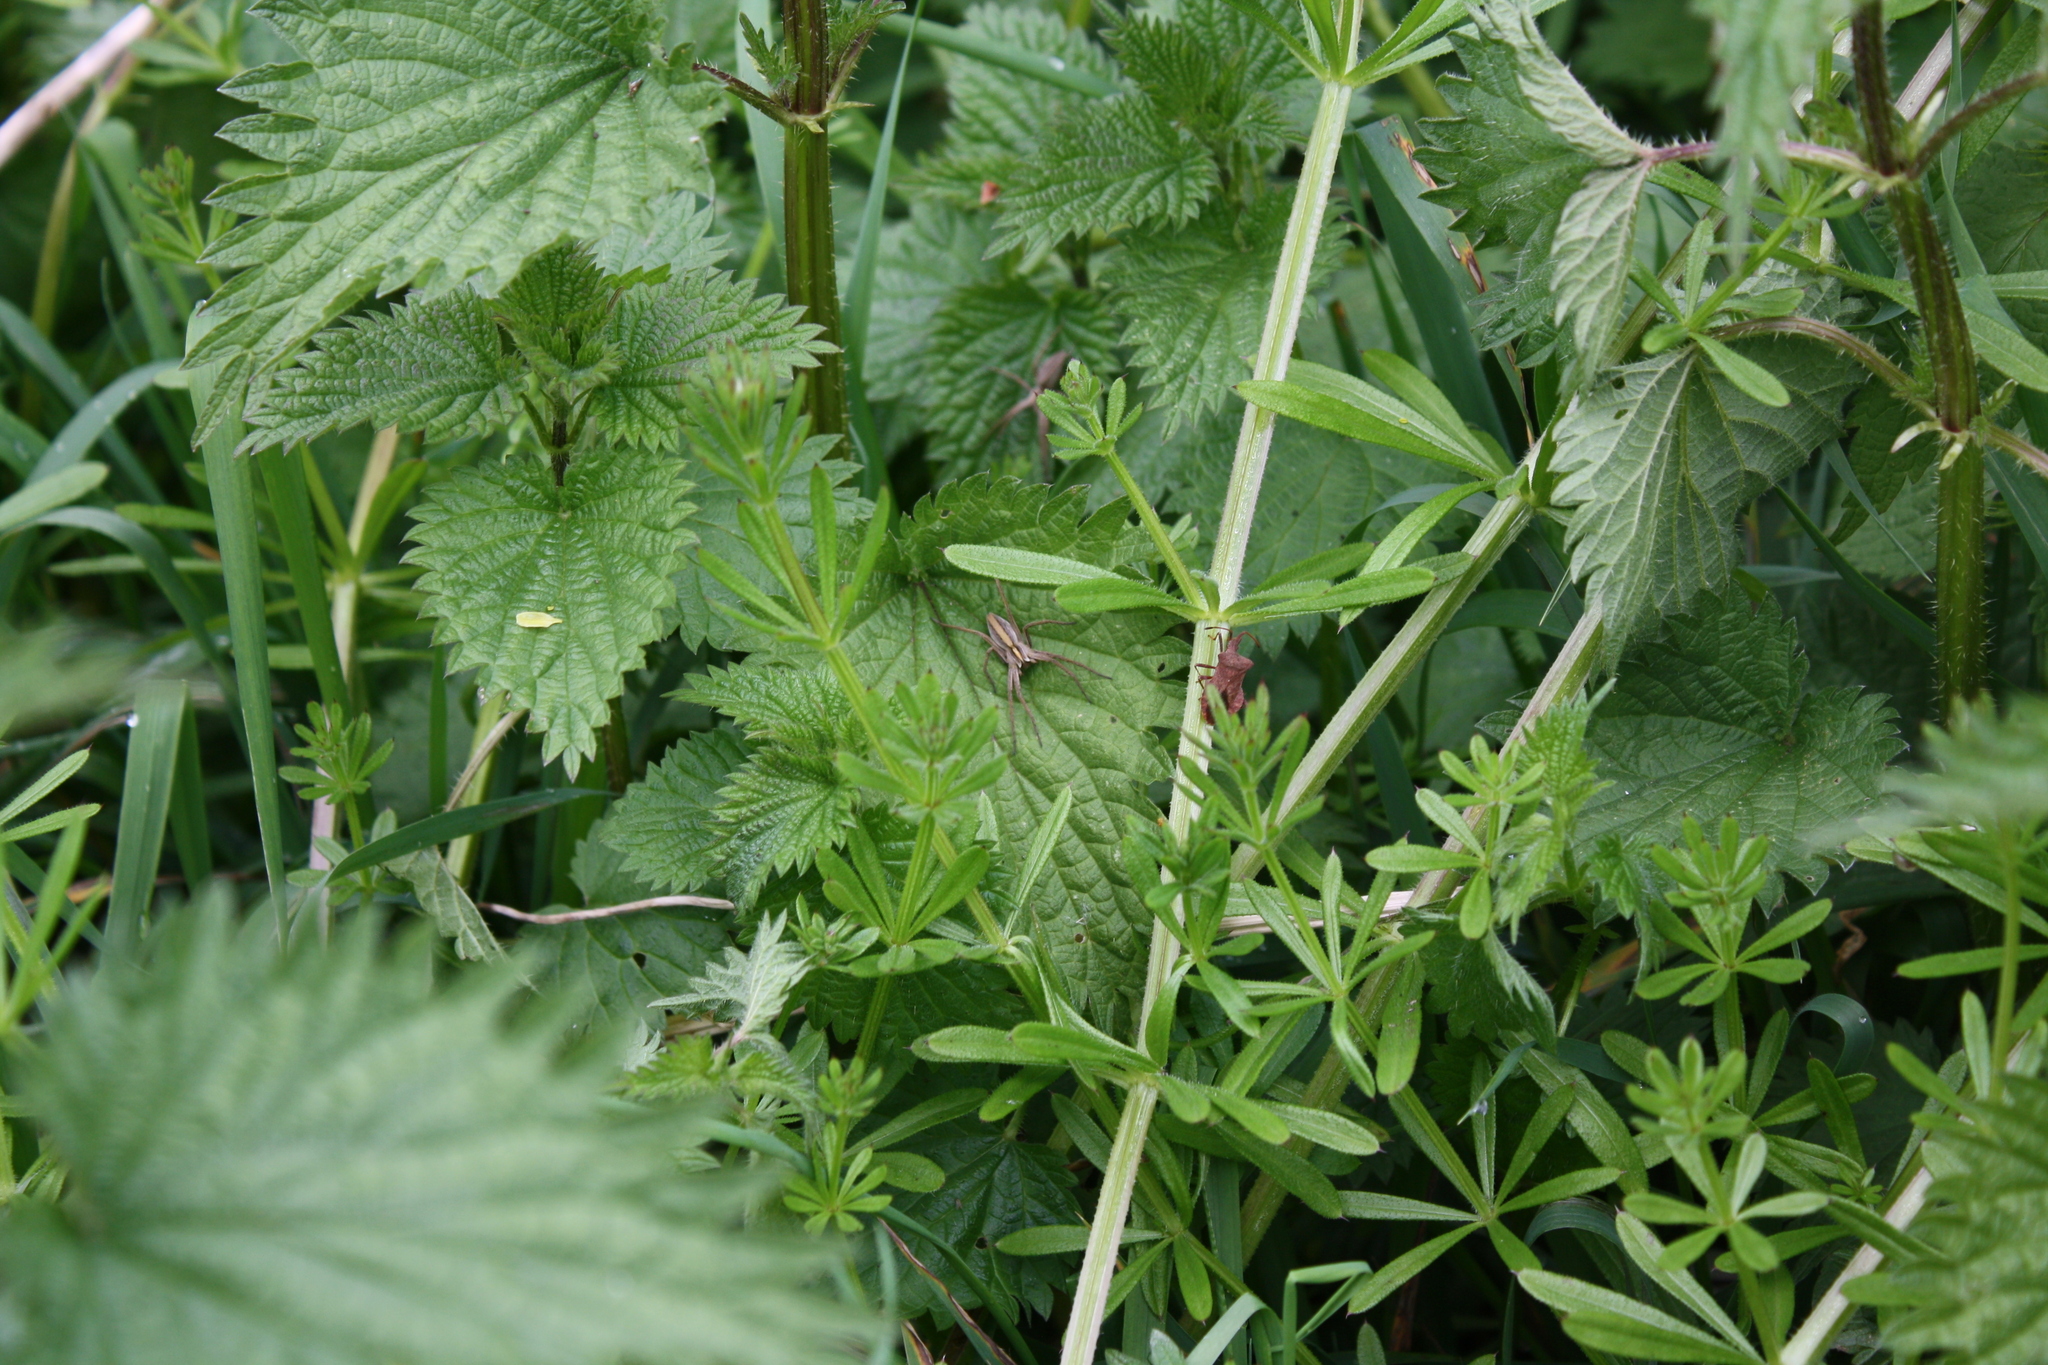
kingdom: Animalia
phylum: Arthropoda
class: Arachnida
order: Araneae
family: Pisauridae
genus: Pisaura
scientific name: Pisaura mirabilis
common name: Tent spider
